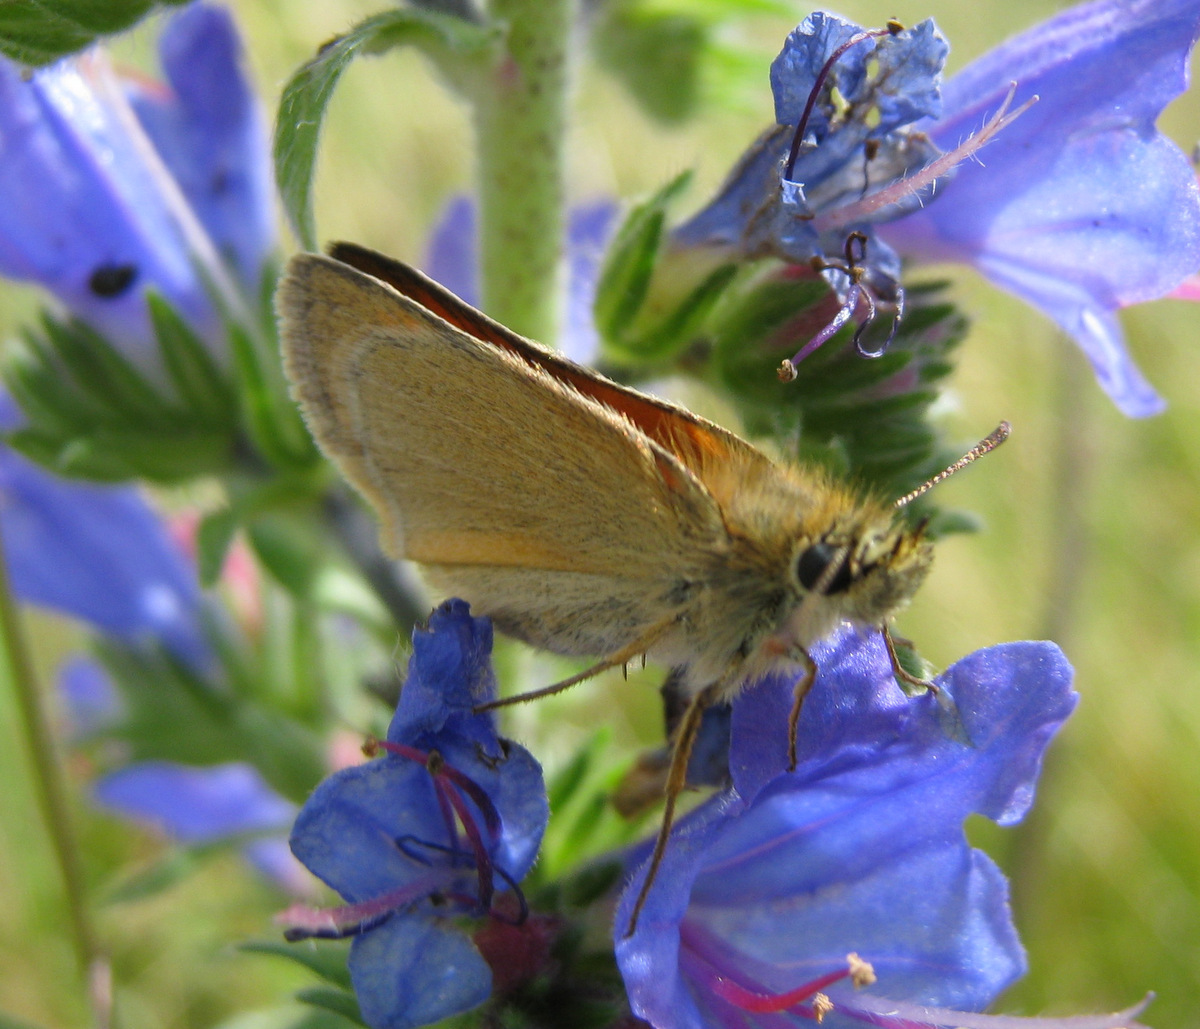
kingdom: Animalia
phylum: Arthropoda
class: Insecta
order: Lepidoptera
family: Hesperiidae
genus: Thymelicus
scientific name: Thymelicus sylvestris
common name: Small skipper
